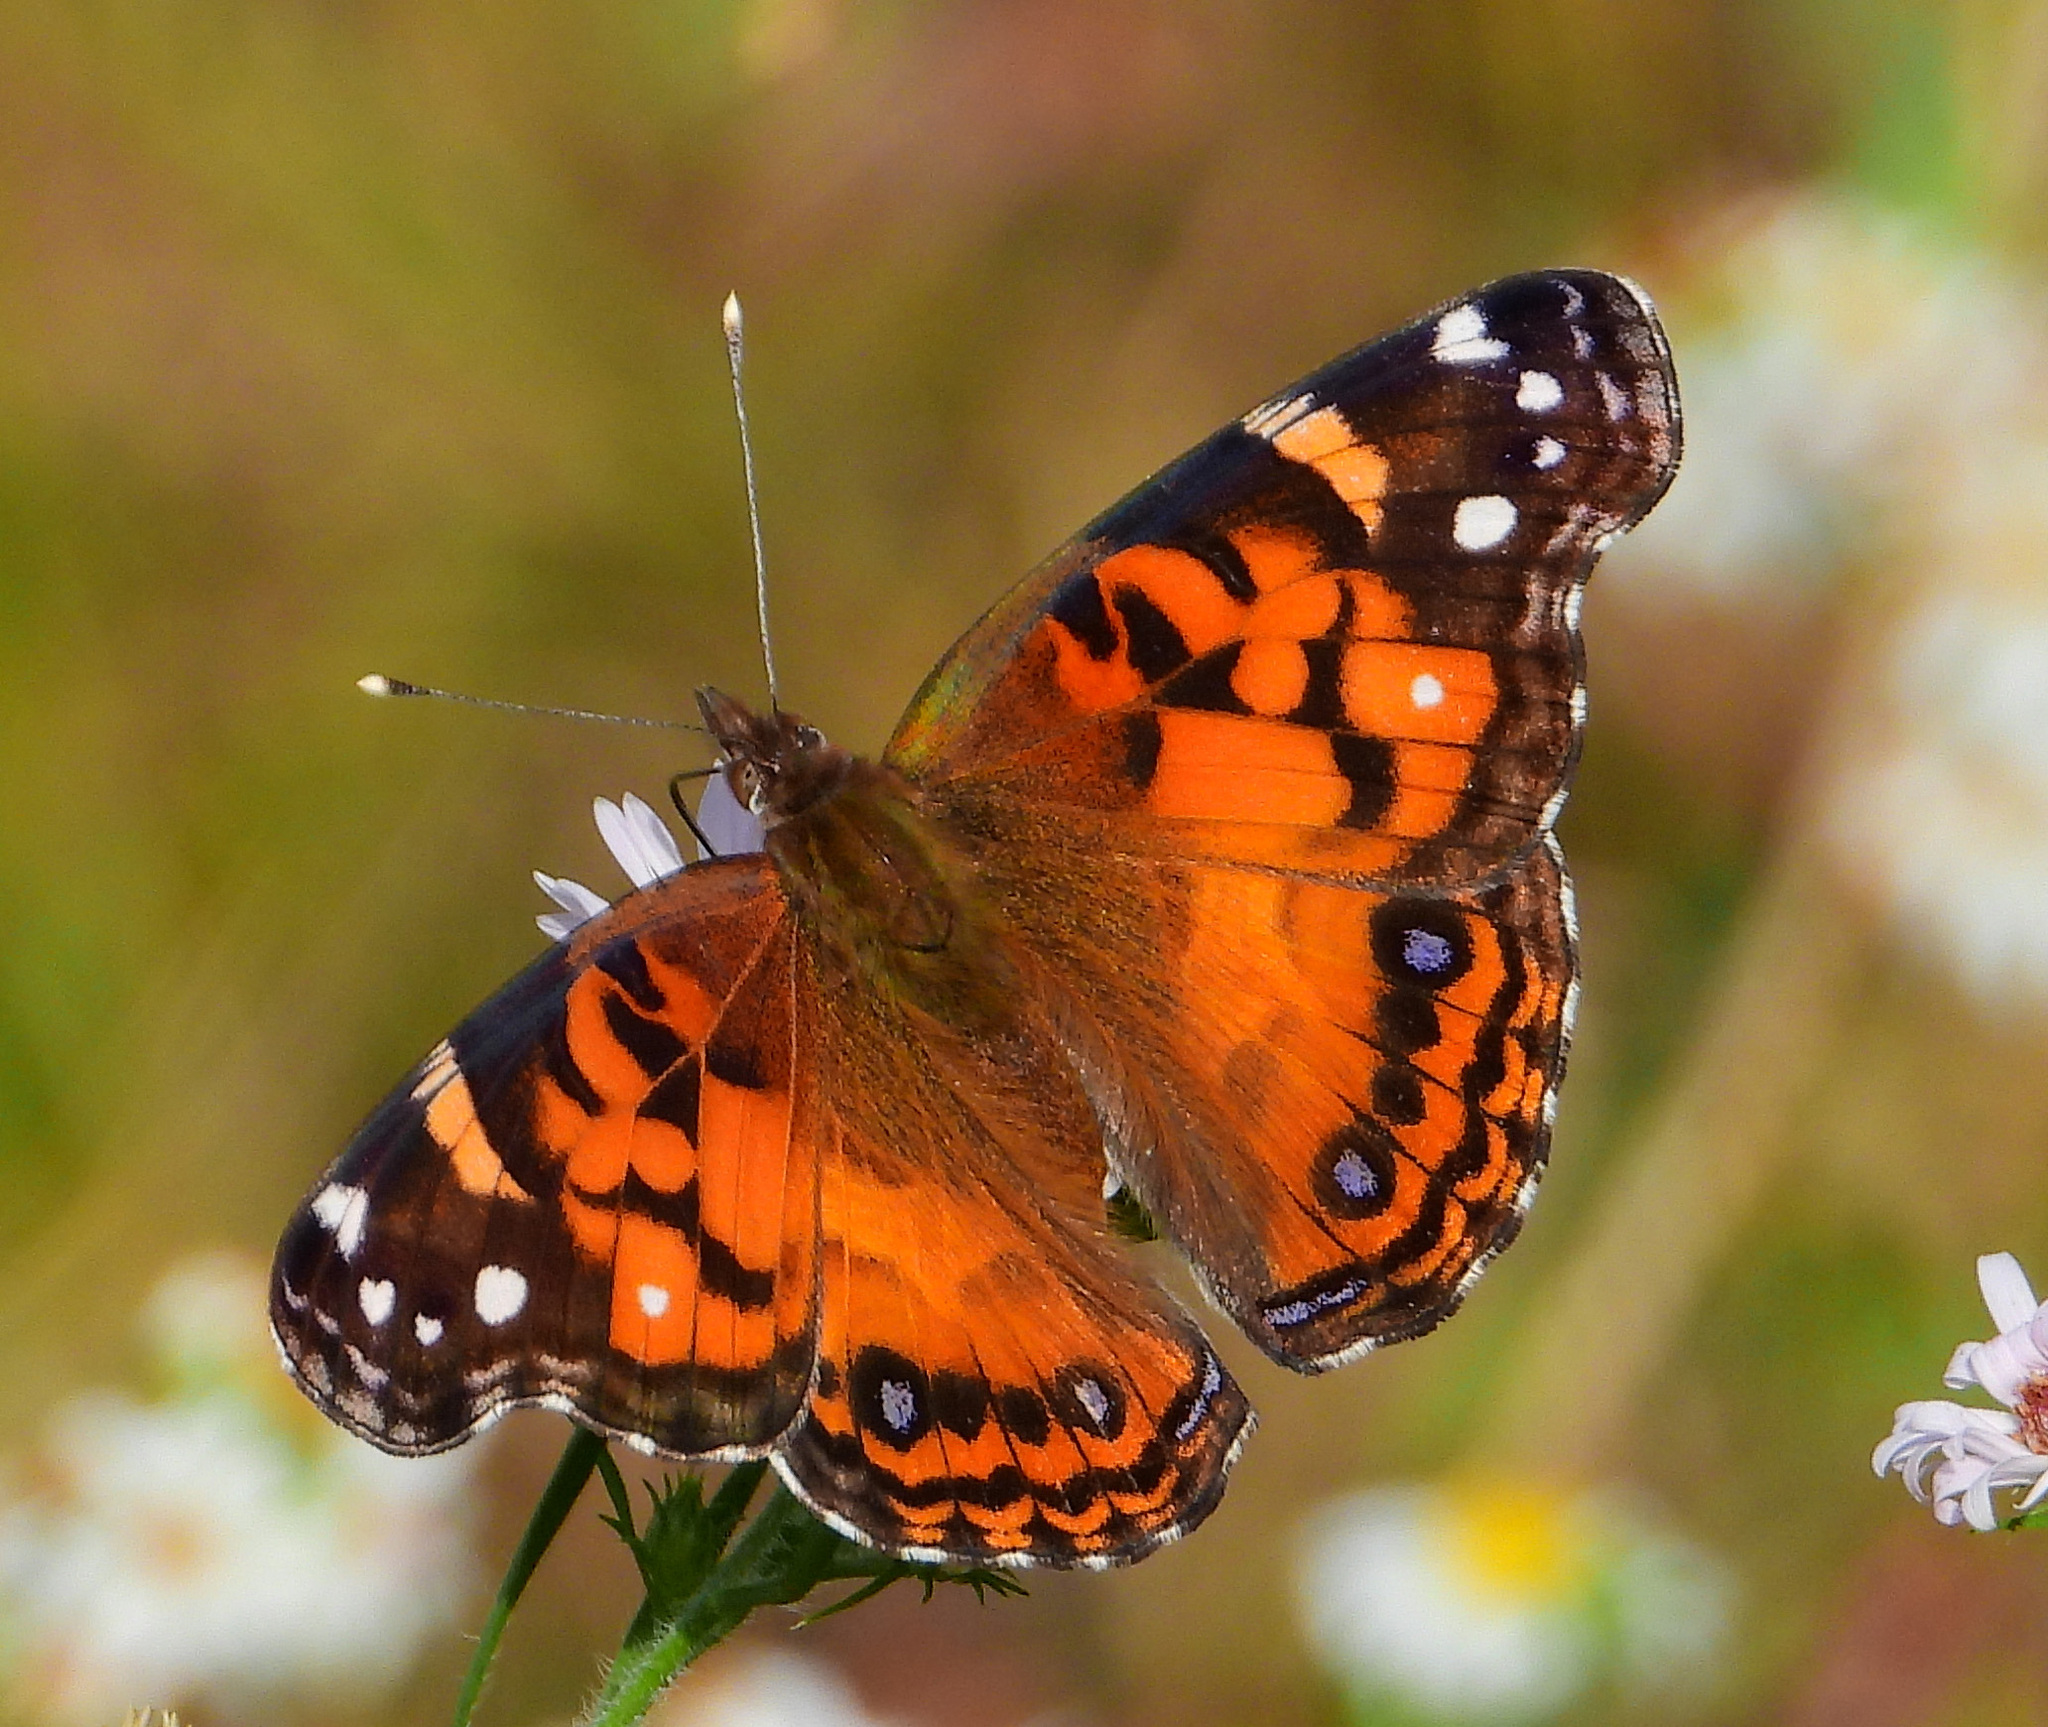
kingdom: Animalia
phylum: Arthropoda
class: Insecta
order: Lepidoptera
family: Nymphalidae
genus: Vanessa
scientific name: Vanessa virginiensis
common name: American lady
